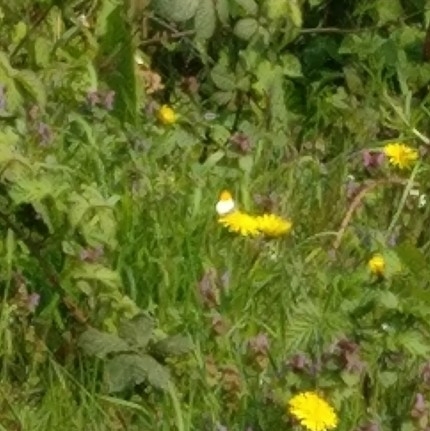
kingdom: Animalia
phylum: Arthropoda
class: Insecta
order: Lepidoptera
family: Pieridae
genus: Anthocharis
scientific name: Anthocharis cardamines
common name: Orange-tip
